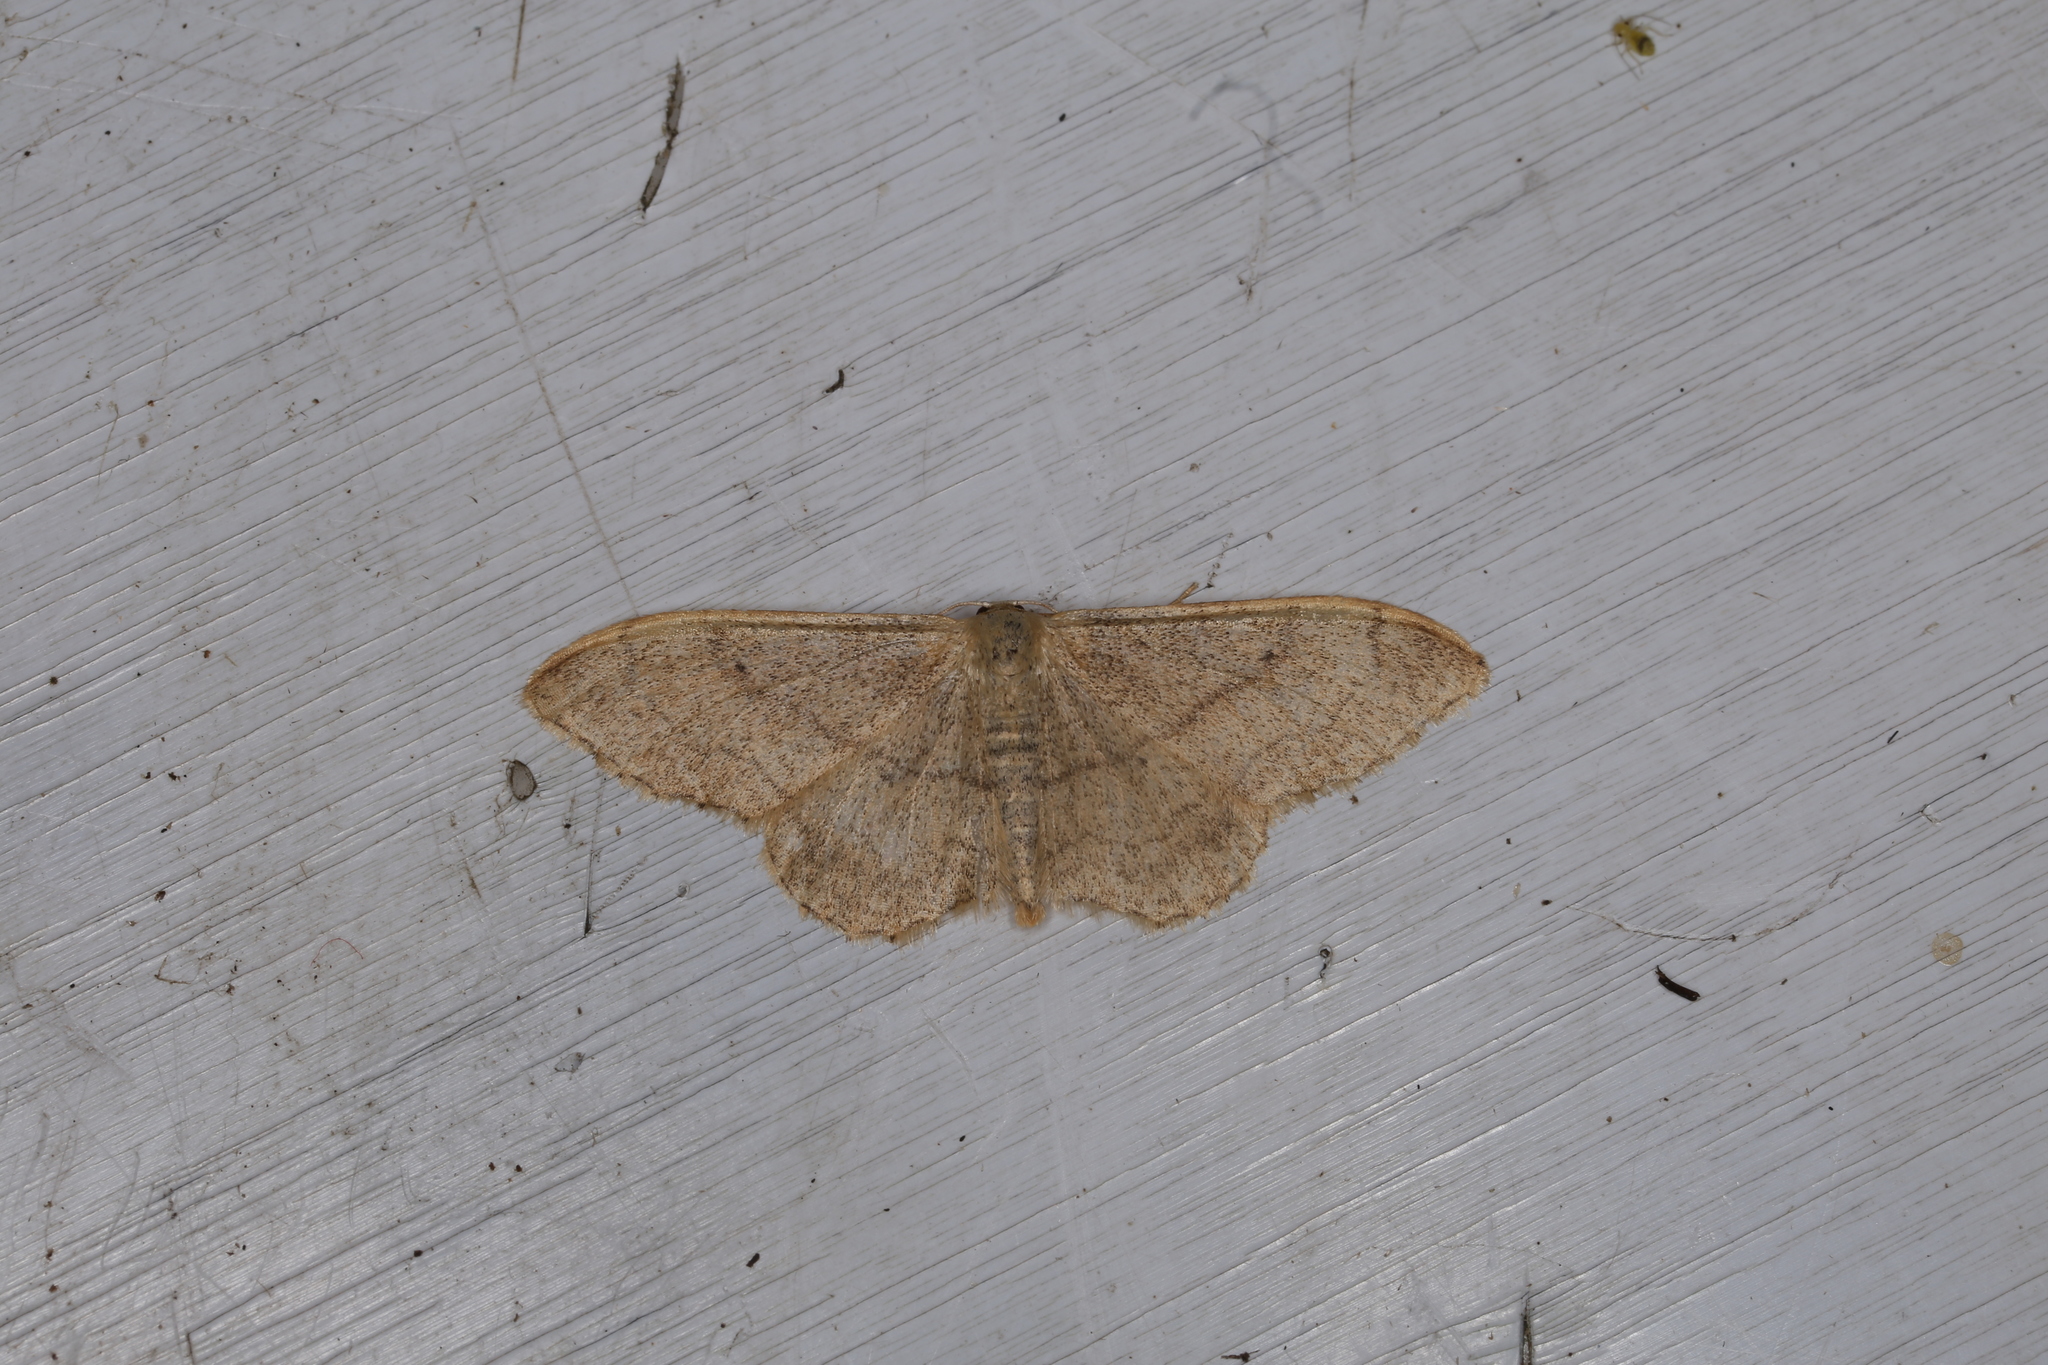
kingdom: Animalia
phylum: Arthropoda
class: Insecta
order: Lepidoptera
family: Geometridae
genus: Idaea
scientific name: Idaea aversata
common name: Riband wave
